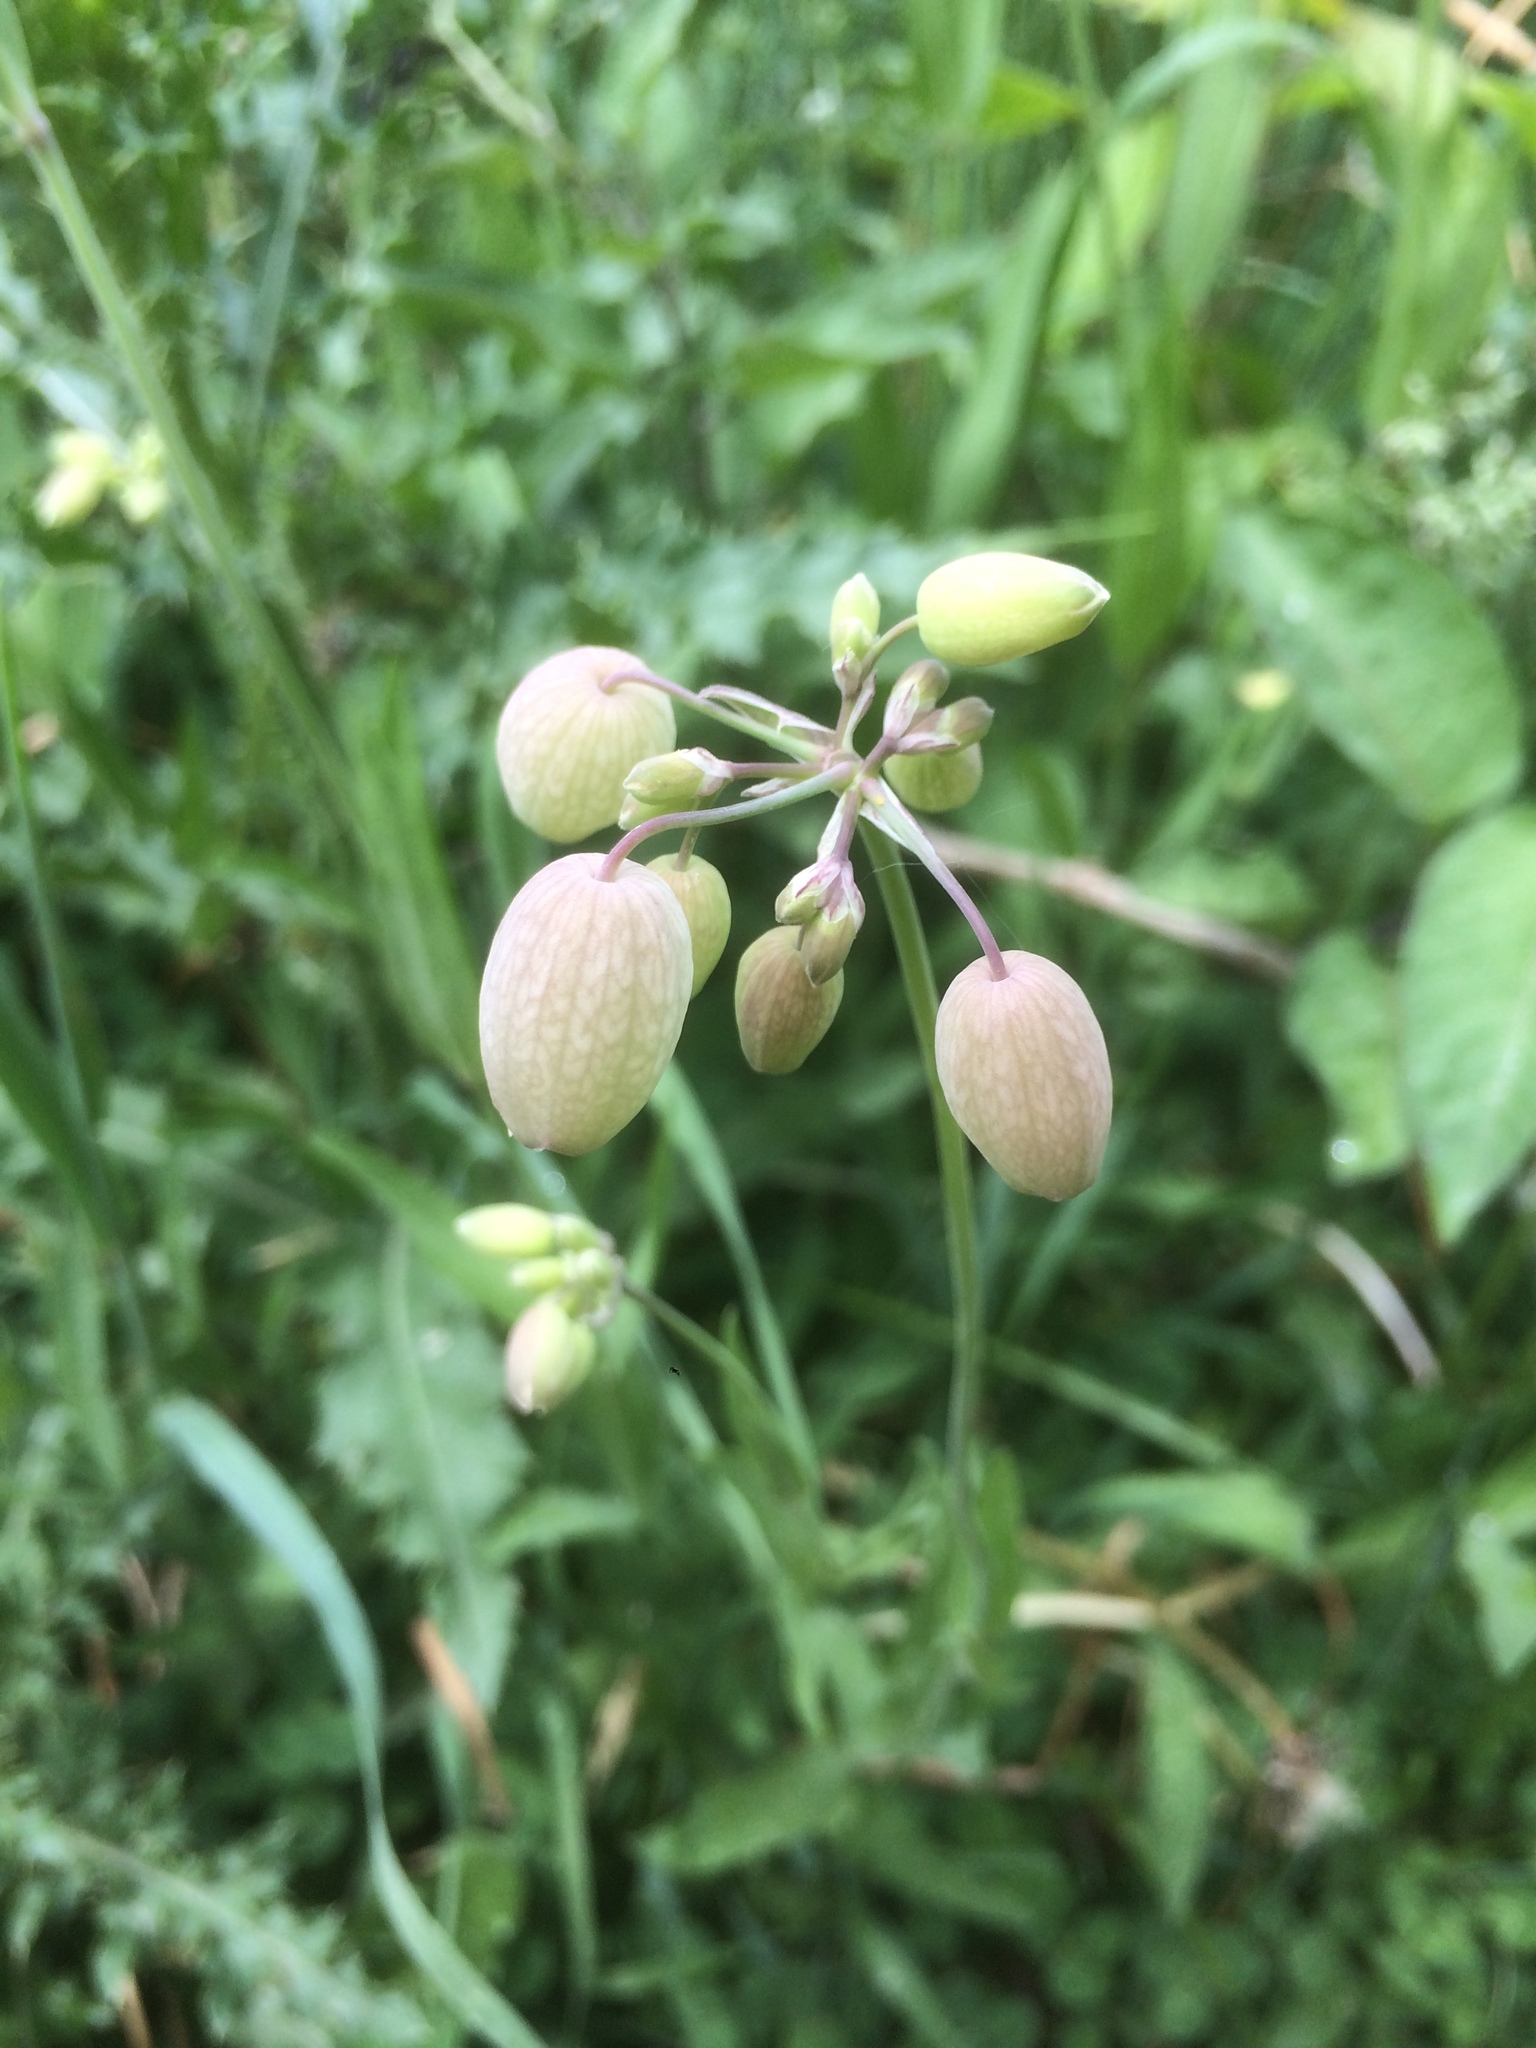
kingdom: Plantae
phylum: Tracheophyta
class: Magnoliopsida
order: Caryophyllales
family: Caryophyllaceae
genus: Silene
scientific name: Silene vulgaris
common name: Bladder campion
